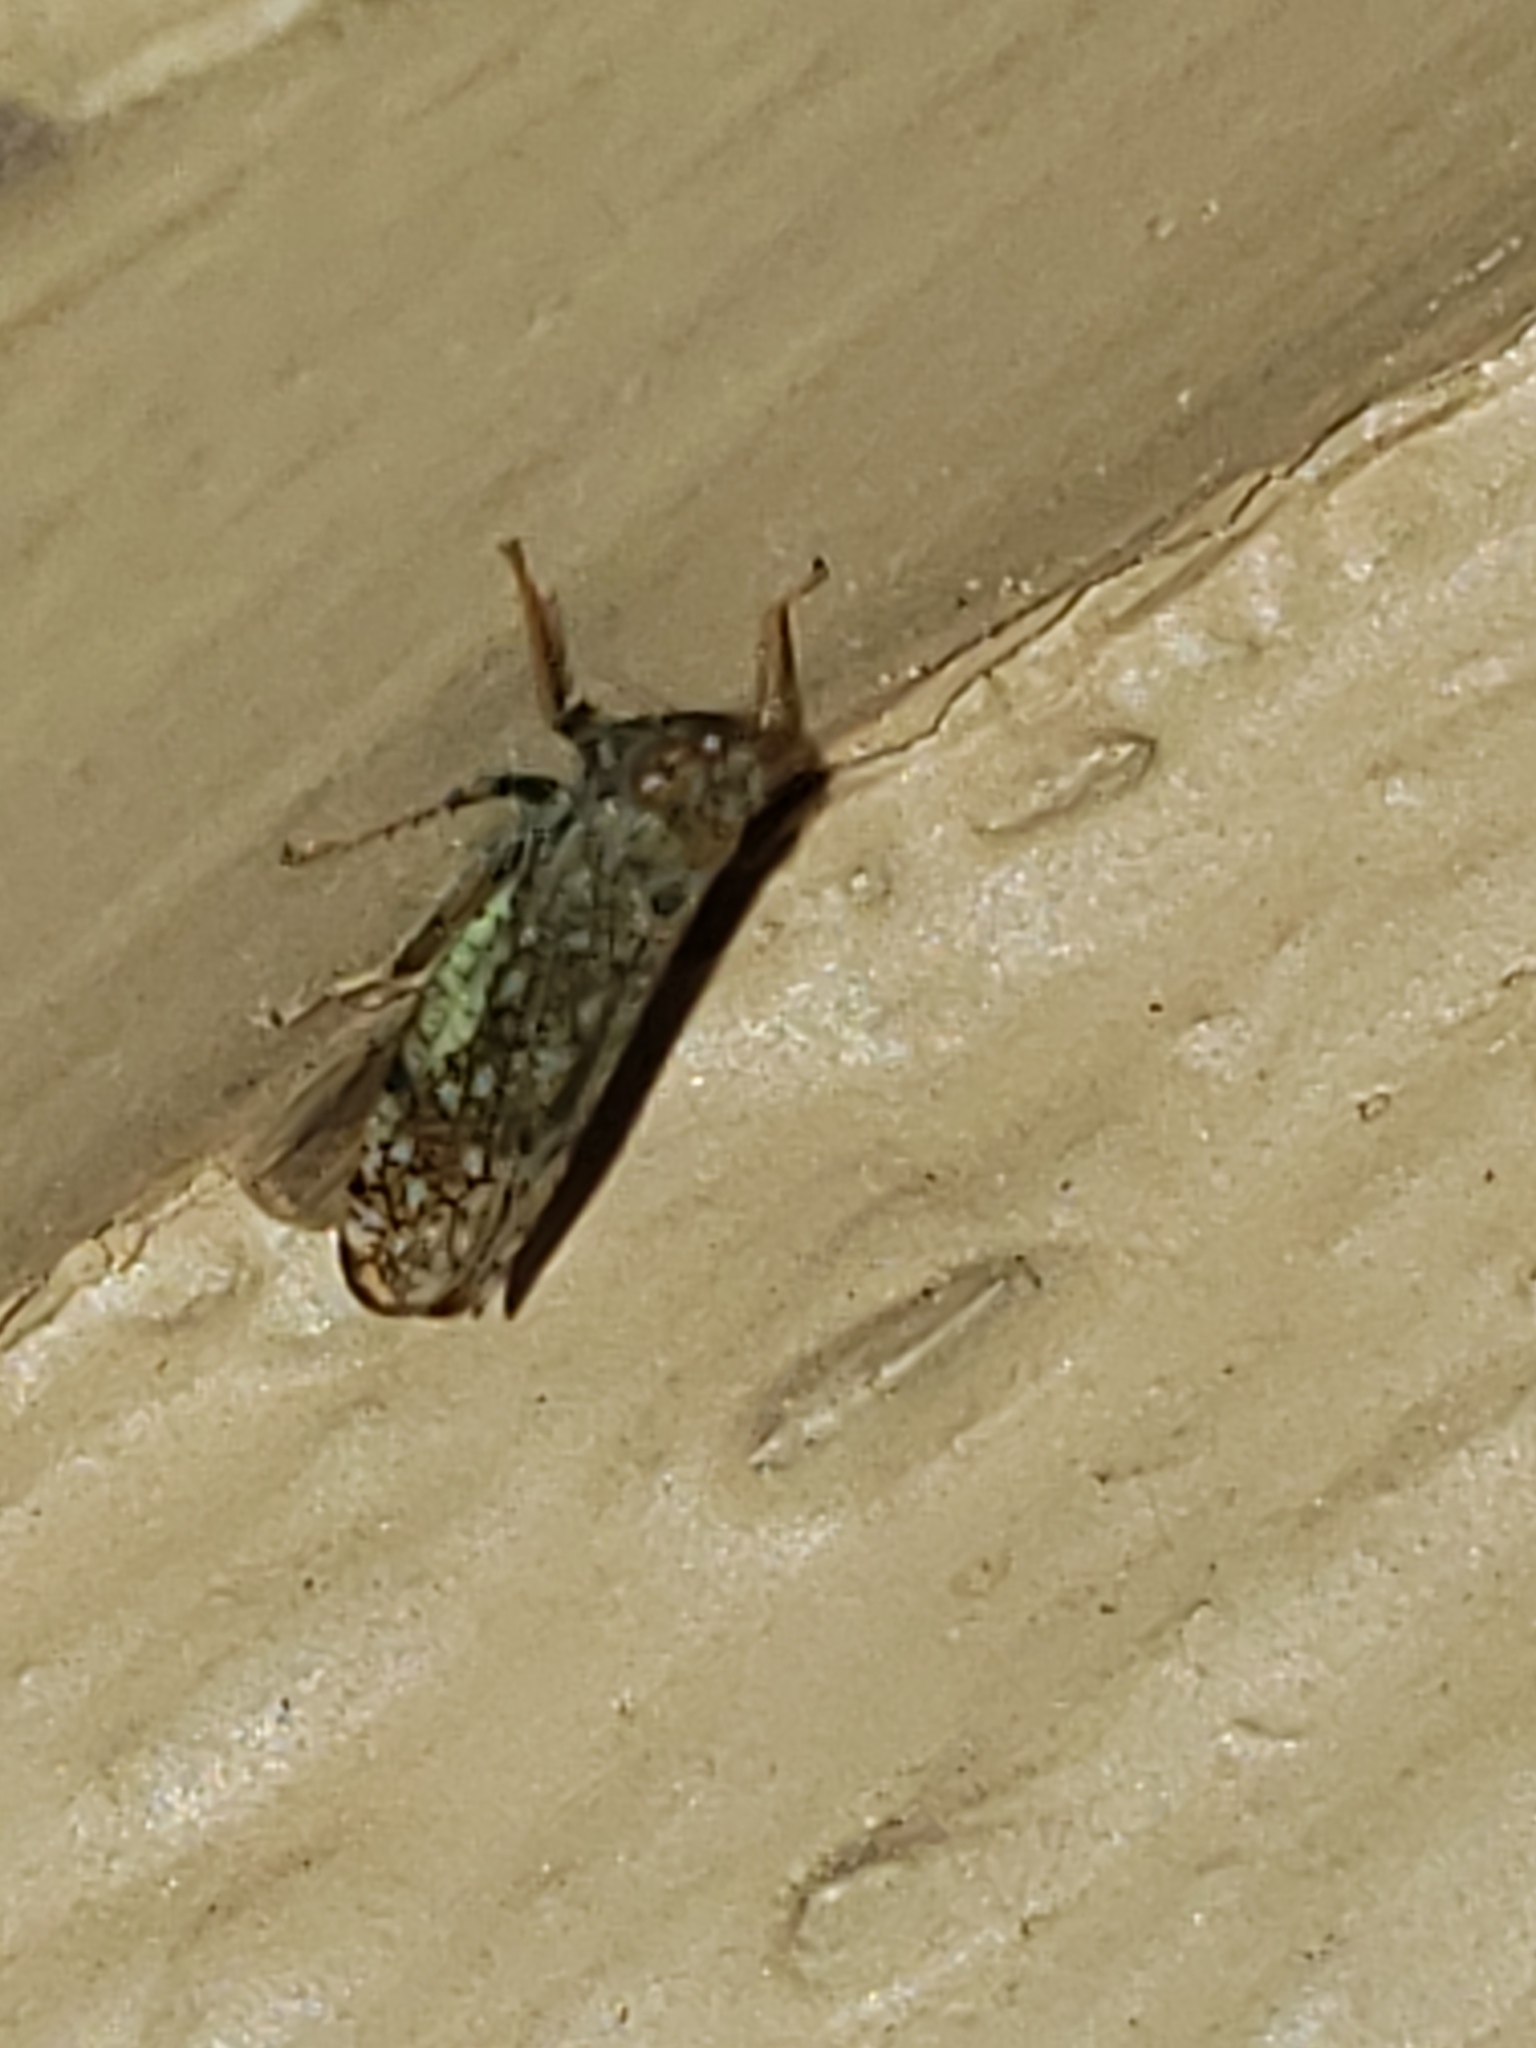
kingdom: Animalia
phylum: Arthropoda
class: Insecta
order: Hemiptera
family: Cicadellidae
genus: Orientus
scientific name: Orientus ishidae
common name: Japanese leafhopper
